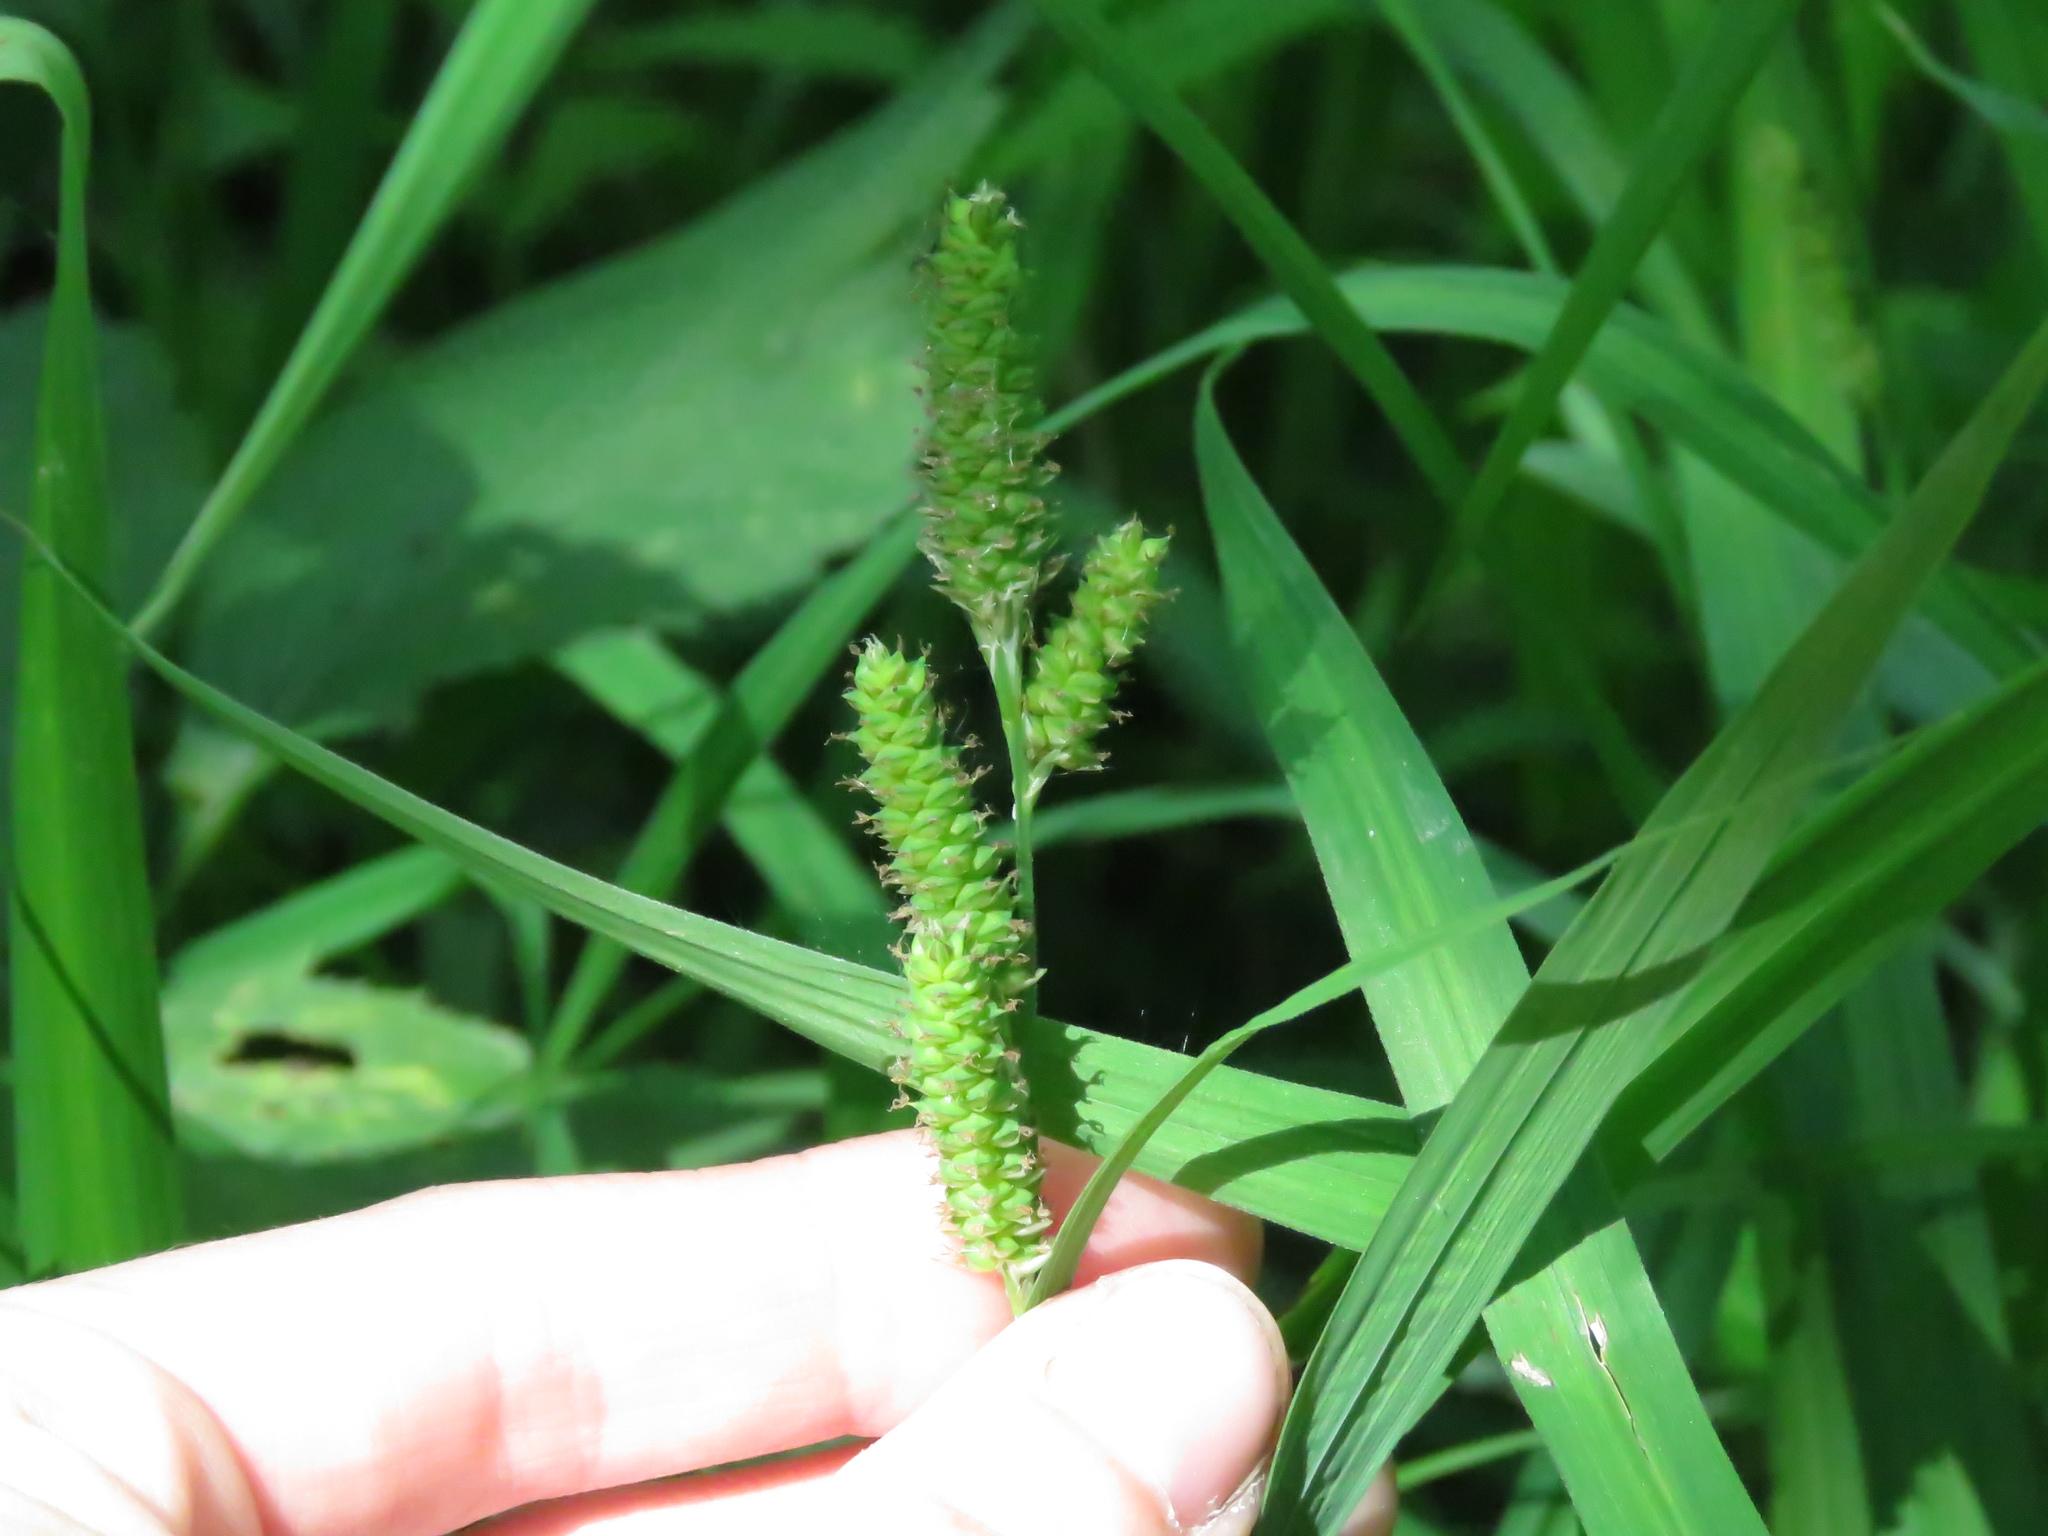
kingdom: Plantae
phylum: Tracheophyta
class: Liliopsida
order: Poales
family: Cyperaceae
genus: Carex
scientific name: Carex shortiana
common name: Short's sedge
